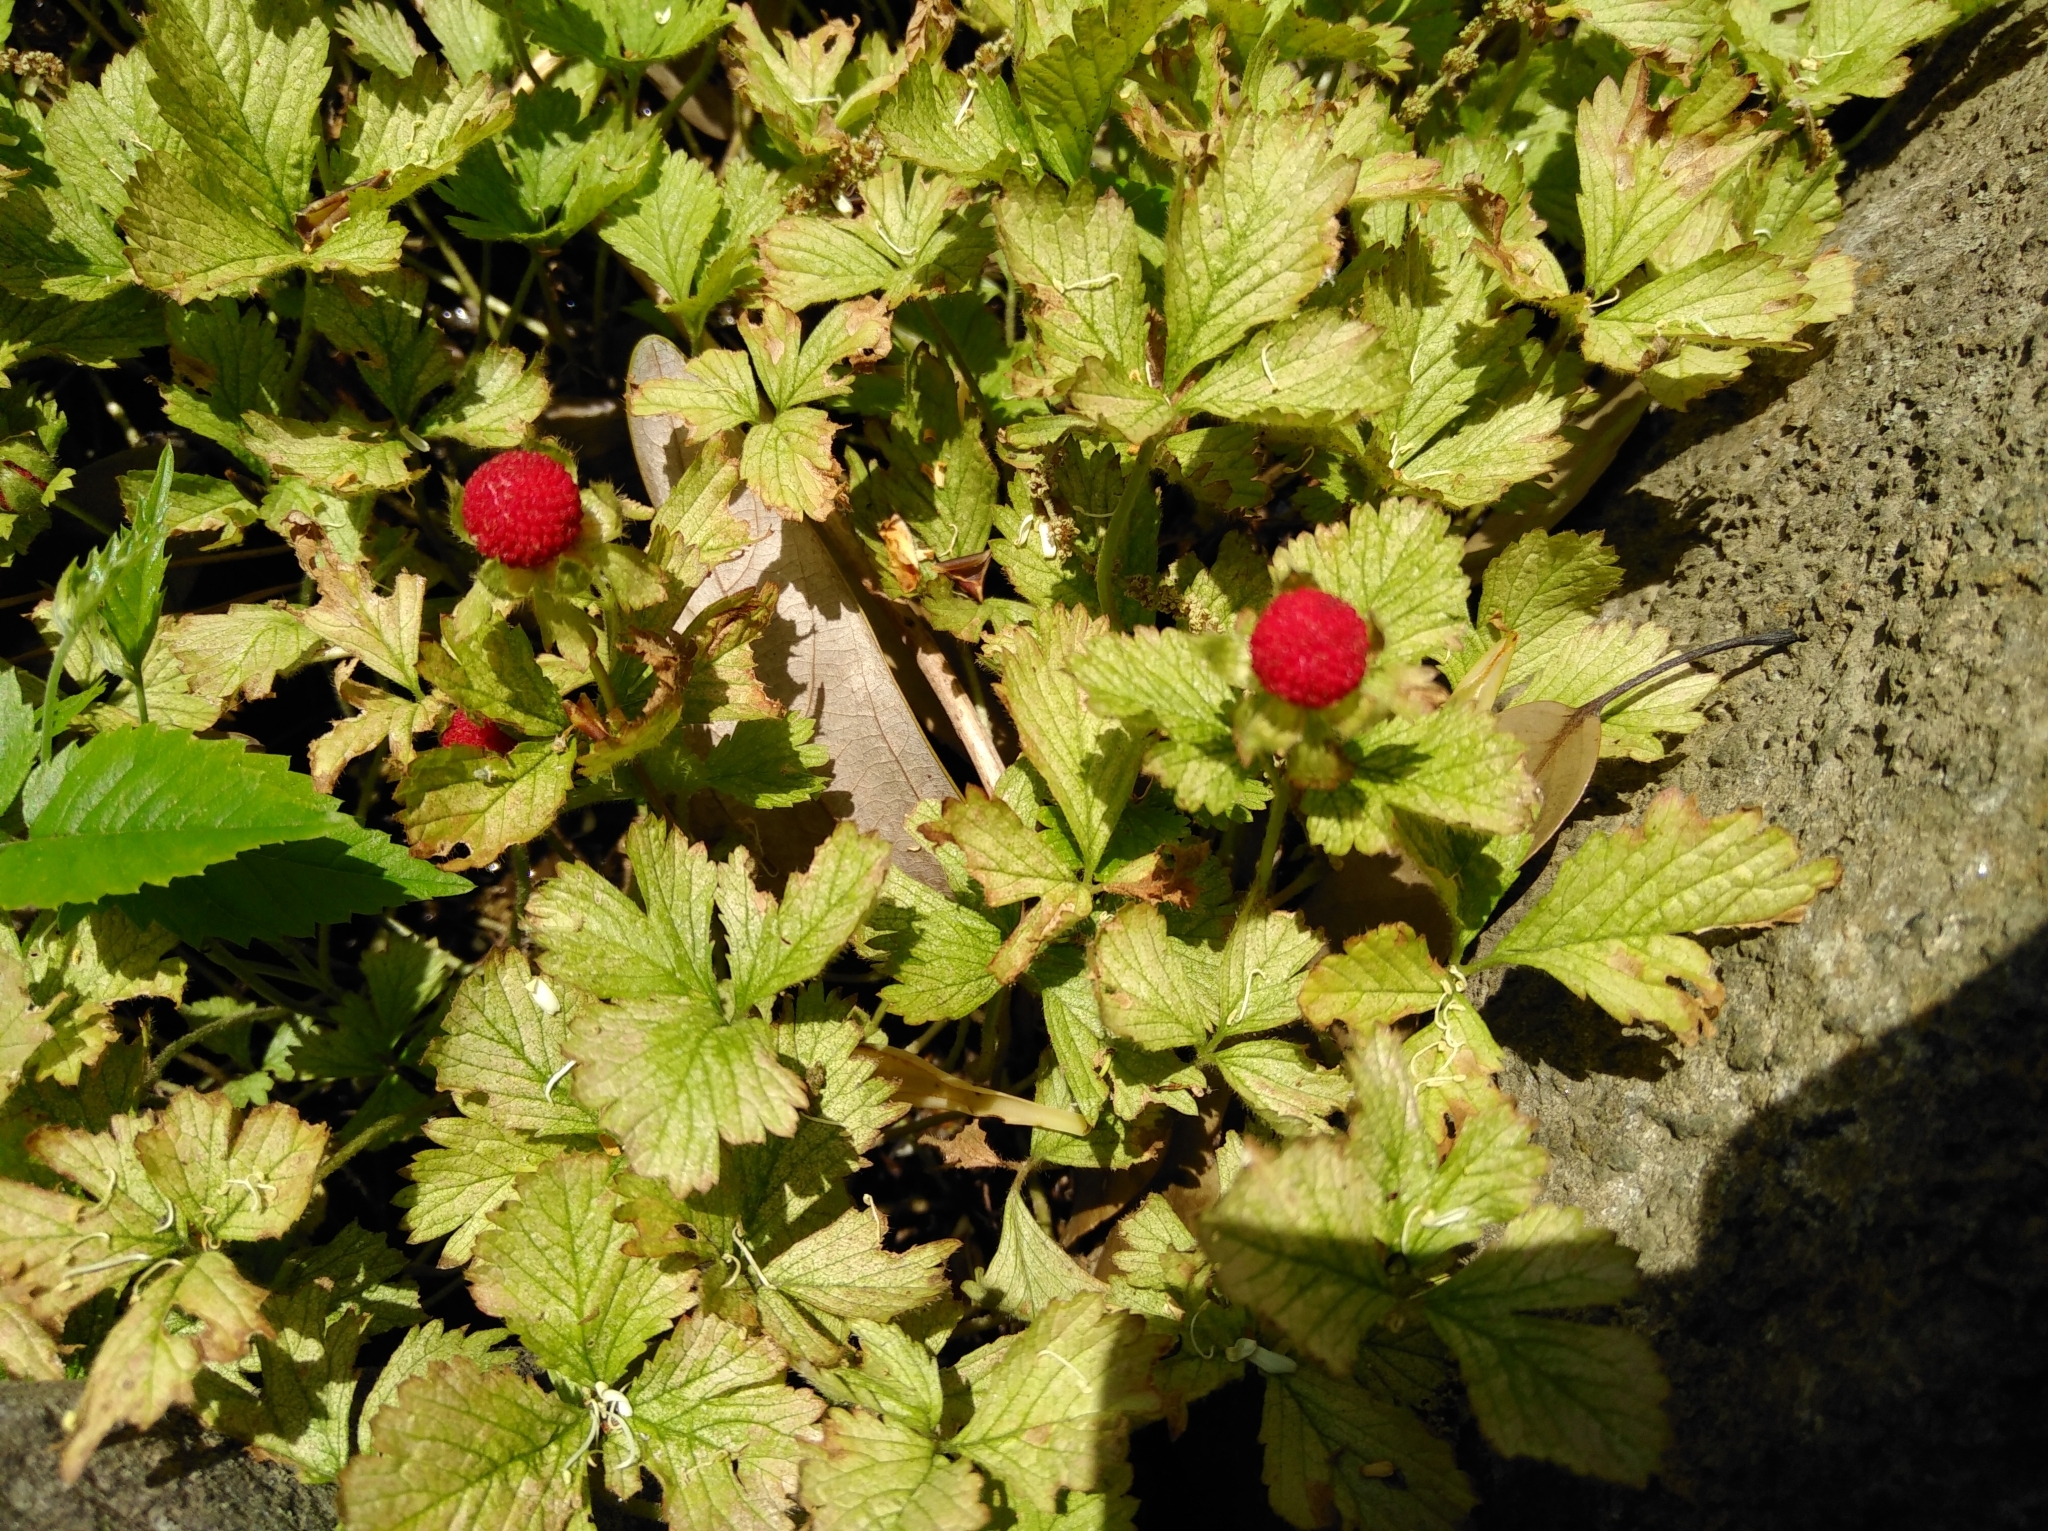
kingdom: Plantae
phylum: Tracheophyta
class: Magnoliopsida
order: Rosales
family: Rosaceae
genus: Potentilla
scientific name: Potentilla indica
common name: Yellow-flowered strawberry
